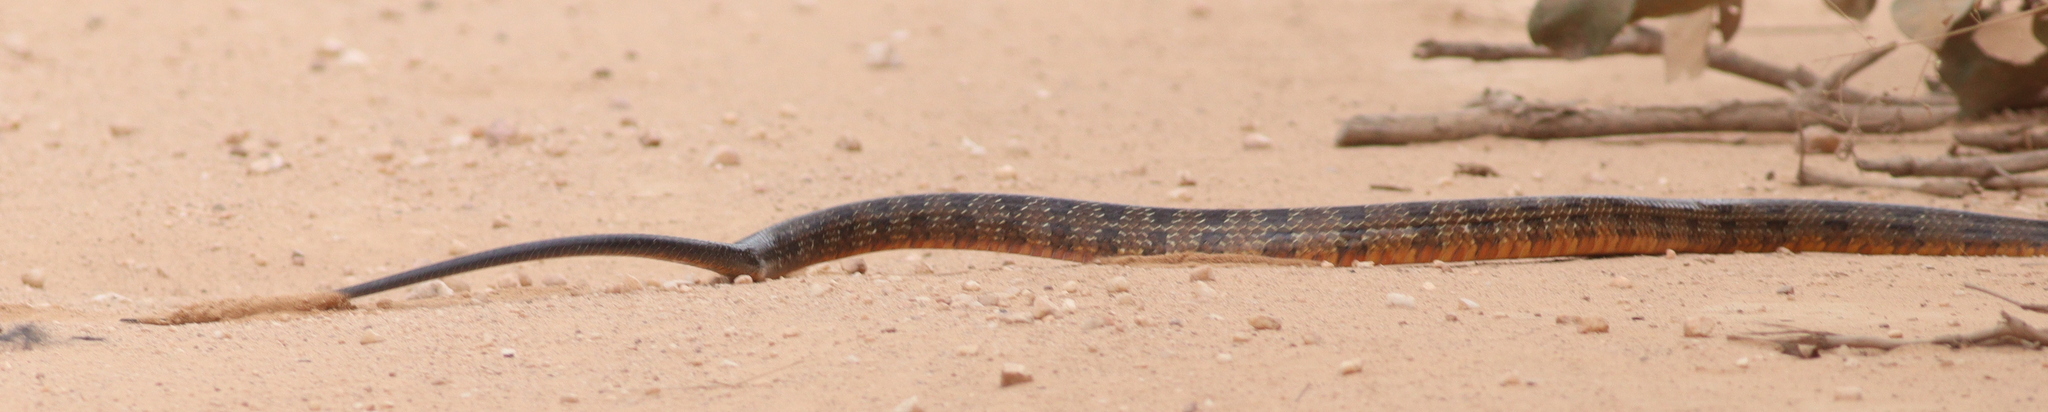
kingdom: Animalia
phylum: Chordata
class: Squamata
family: Colubridae
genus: Palusophis
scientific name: Palusophis bifossatus
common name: Rio tropical racer
